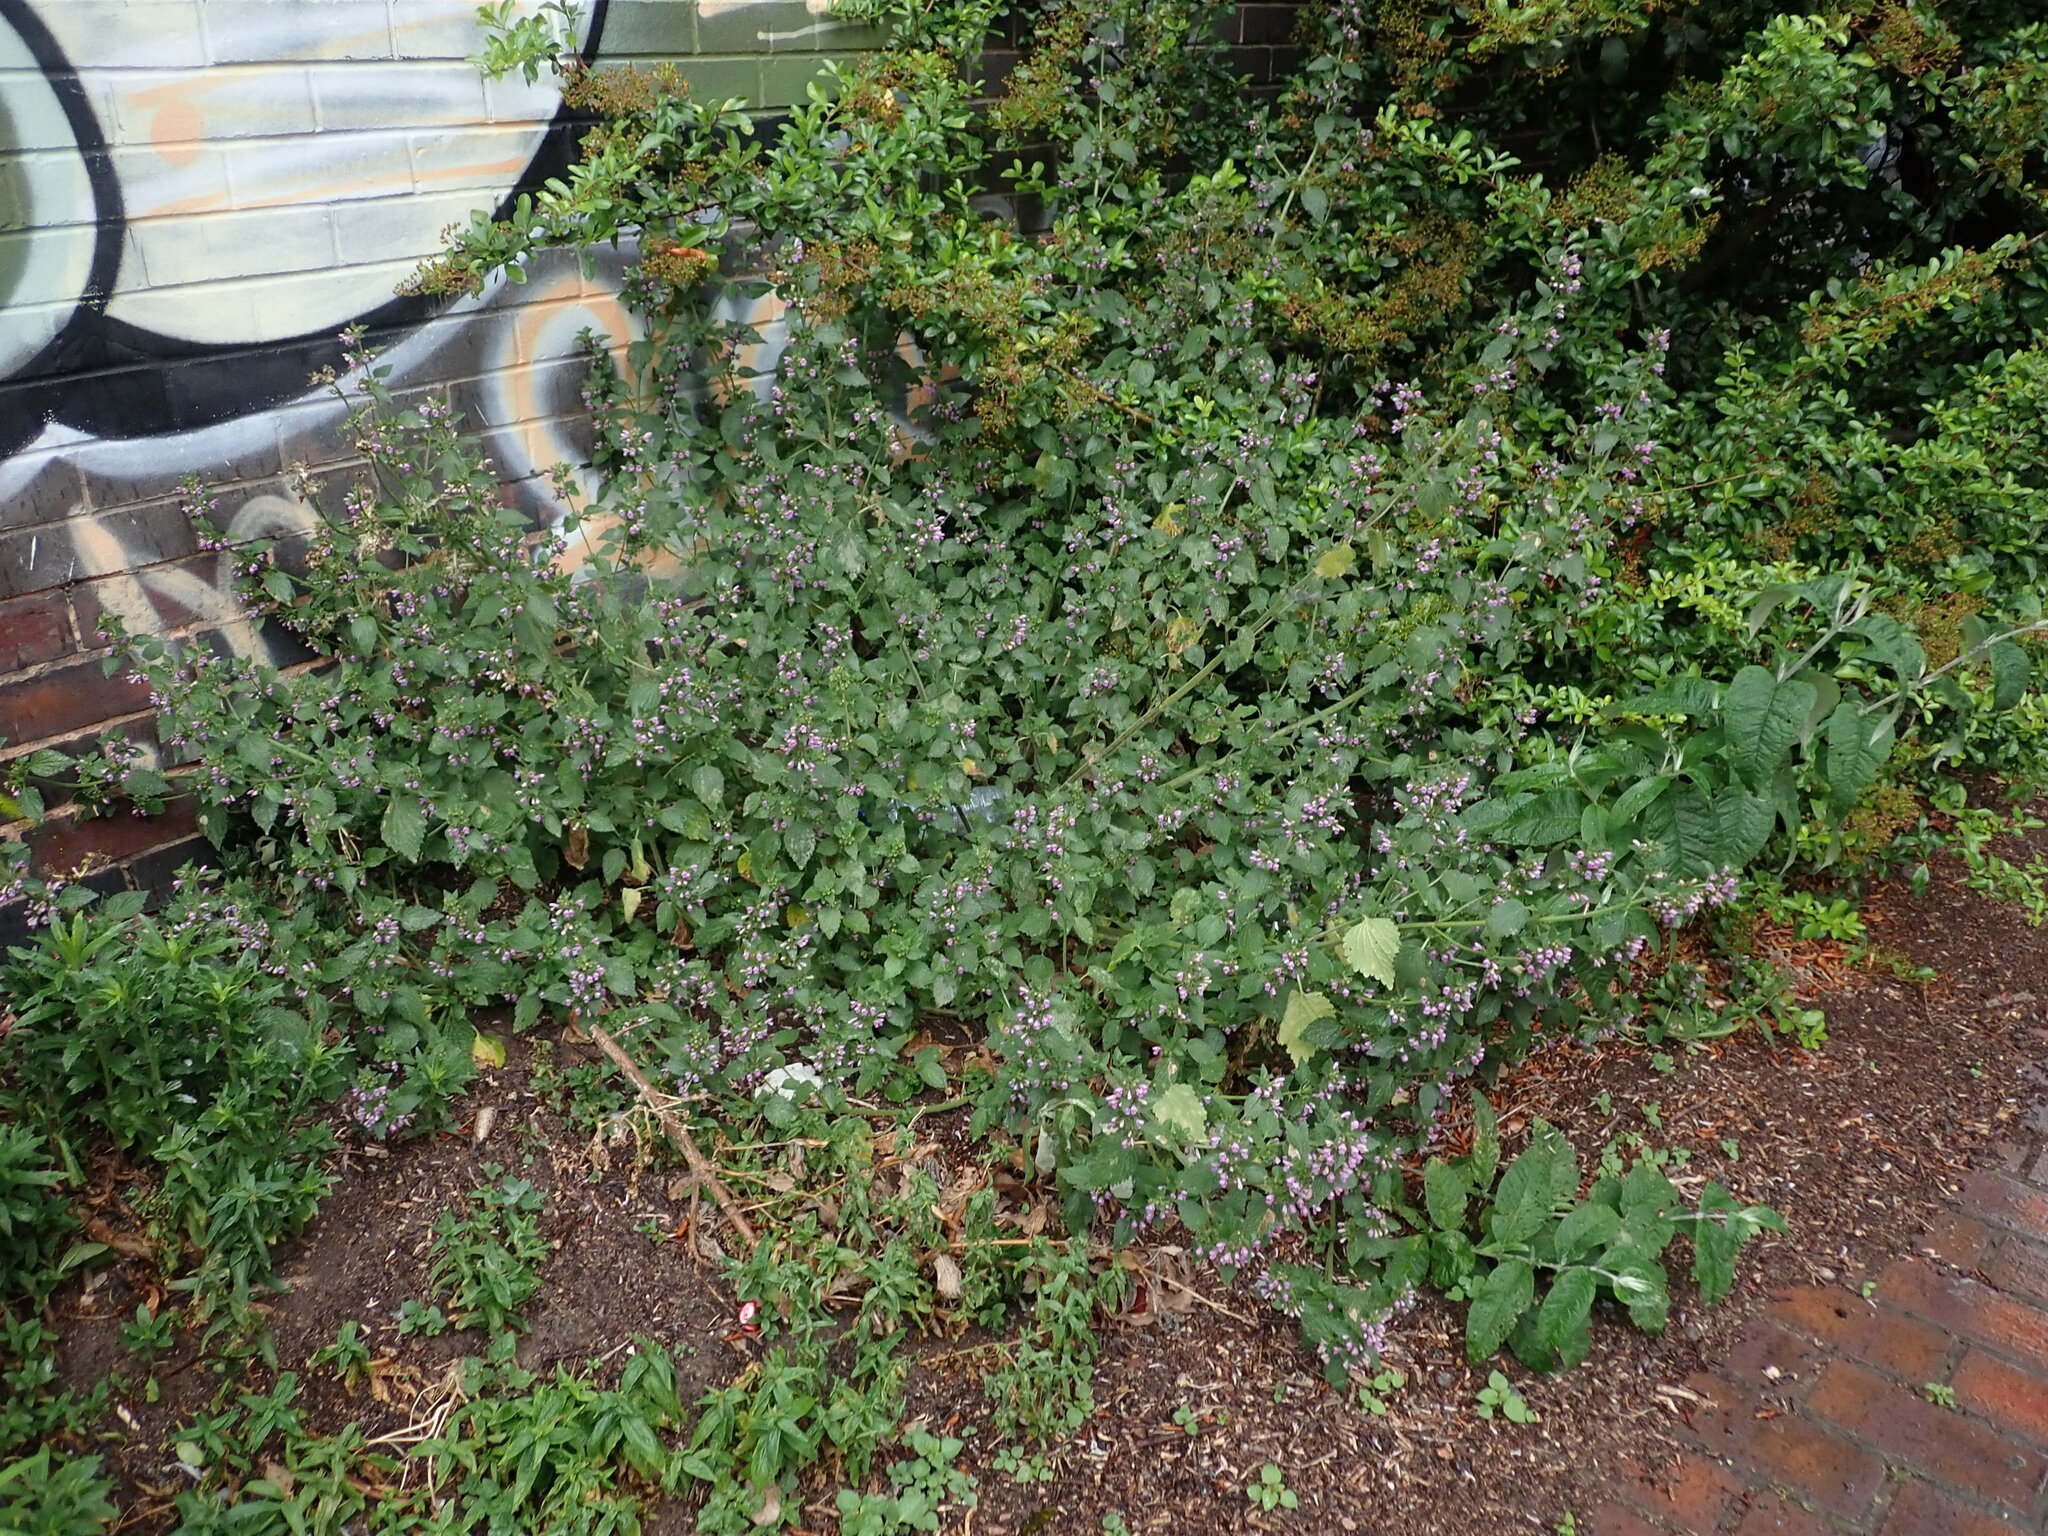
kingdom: Plantae
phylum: Tracheophyta
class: Magnoliopsida
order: Lamiales
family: Lamiaceae
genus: Ballota
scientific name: Ballota nigra
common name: Black horehound
